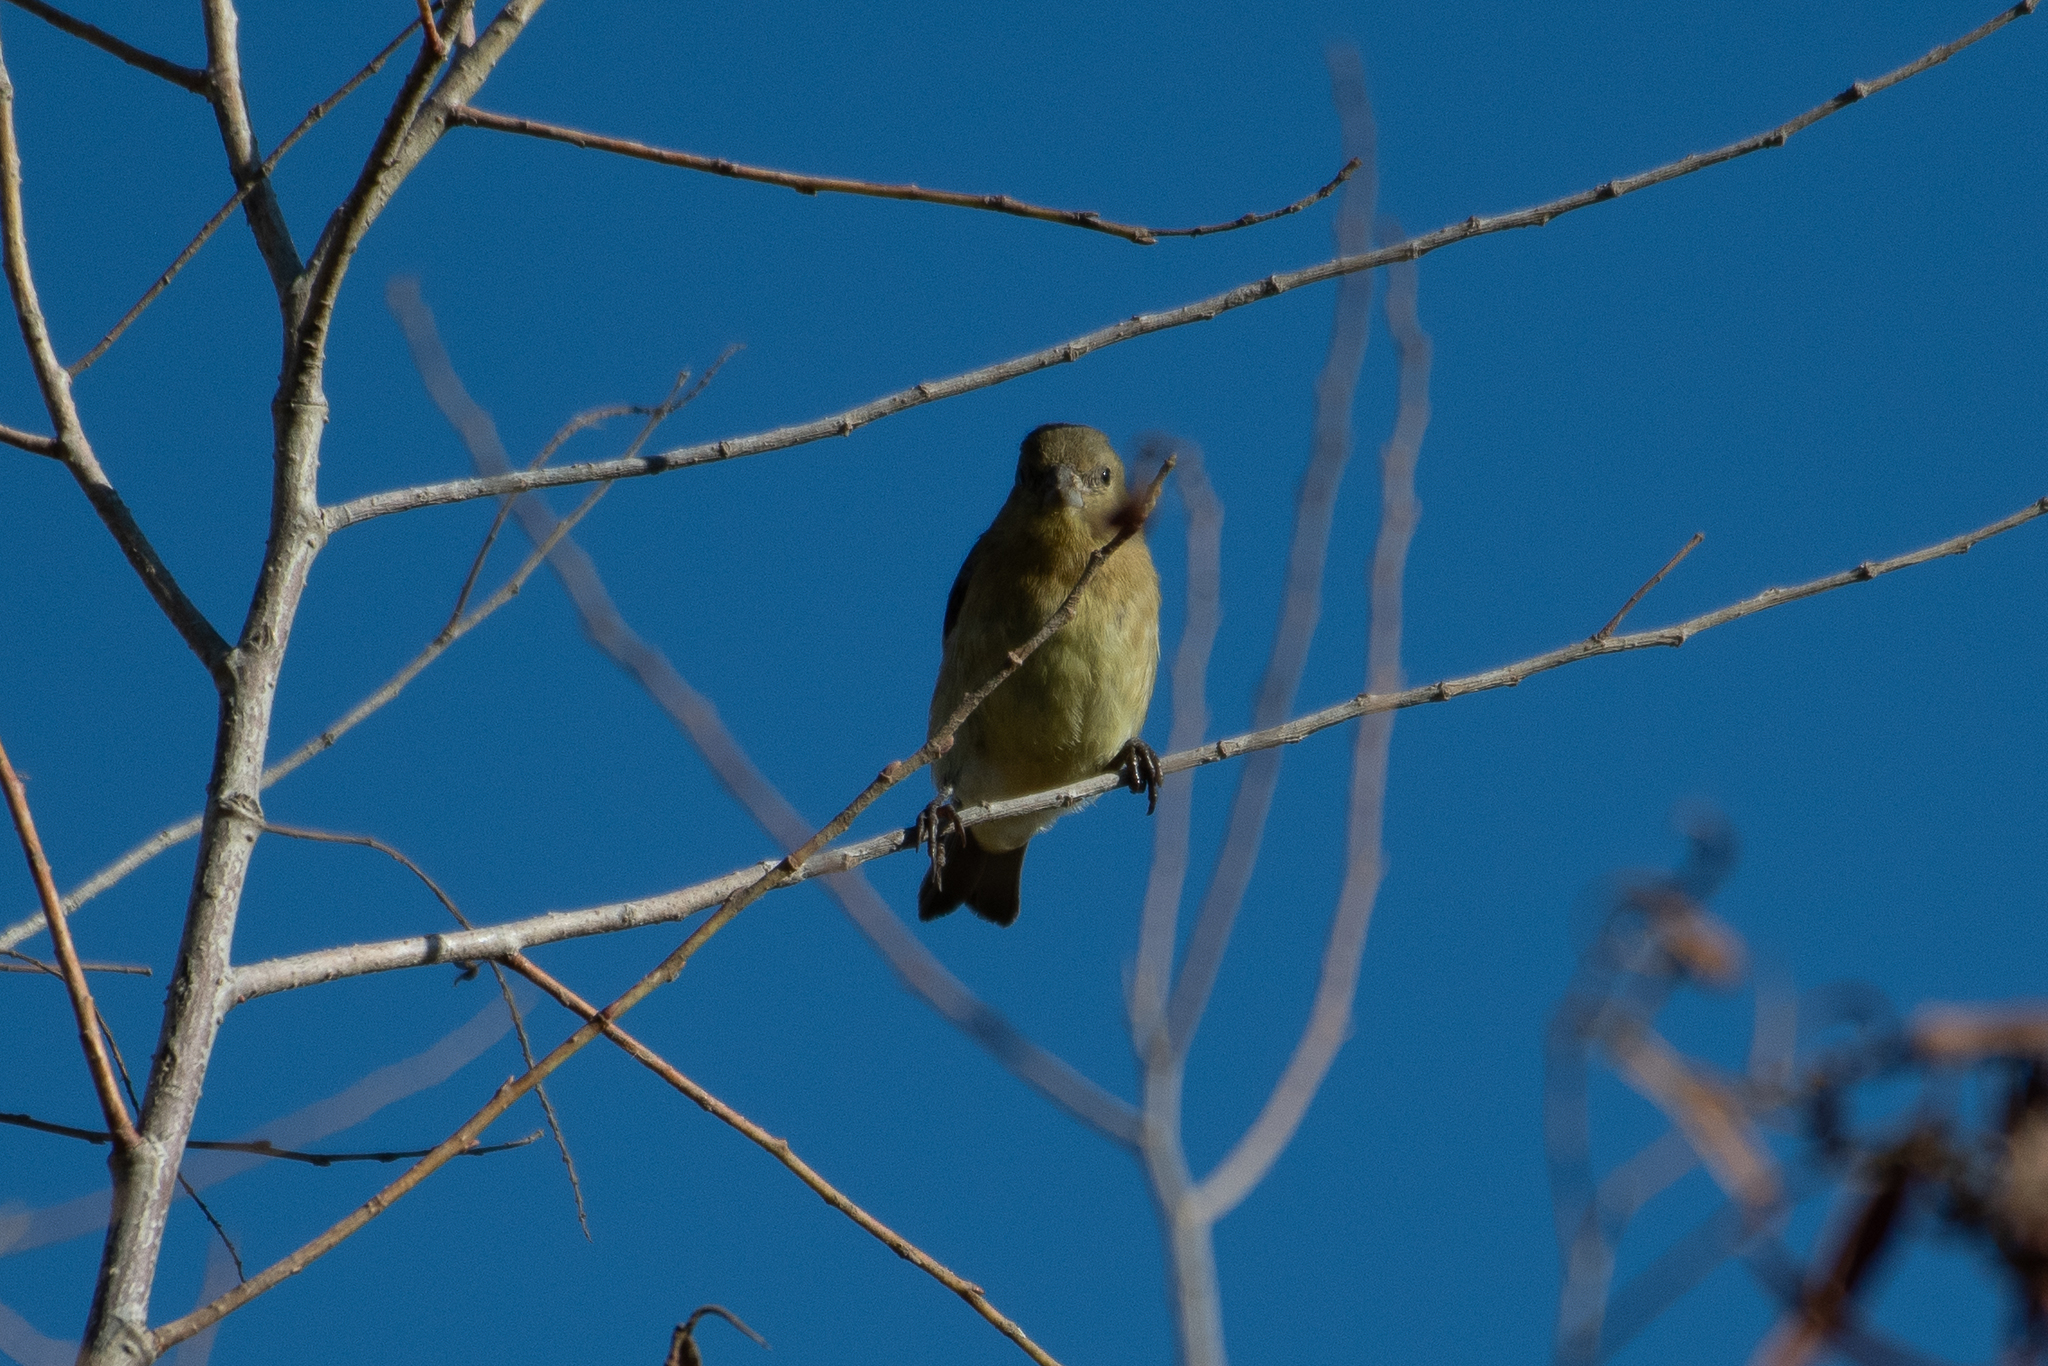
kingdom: Animalia
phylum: Chordata
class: Aves
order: Passeriformes
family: Fringillidae
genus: Spinus
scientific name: Spinus psaltria
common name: Lesser goldfinch
